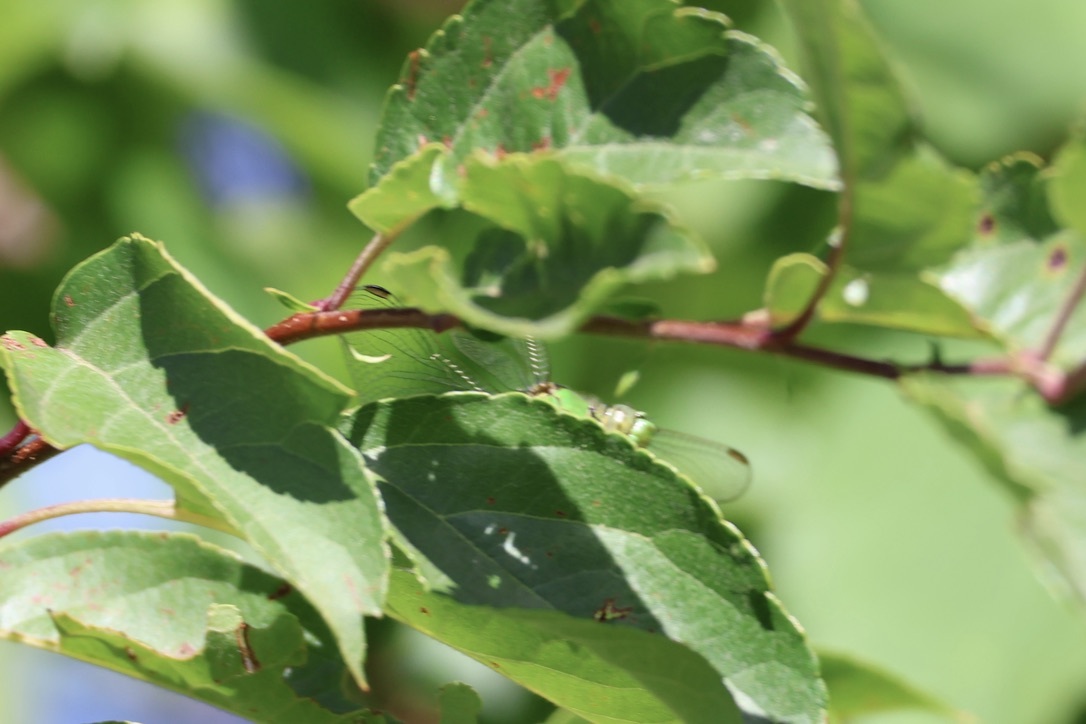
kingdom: Animalia
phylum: Arthropoda
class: Insecta
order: Odonata
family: Libellulidae
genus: Erythemis
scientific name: Erythemis collocata
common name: Western pondhawk
